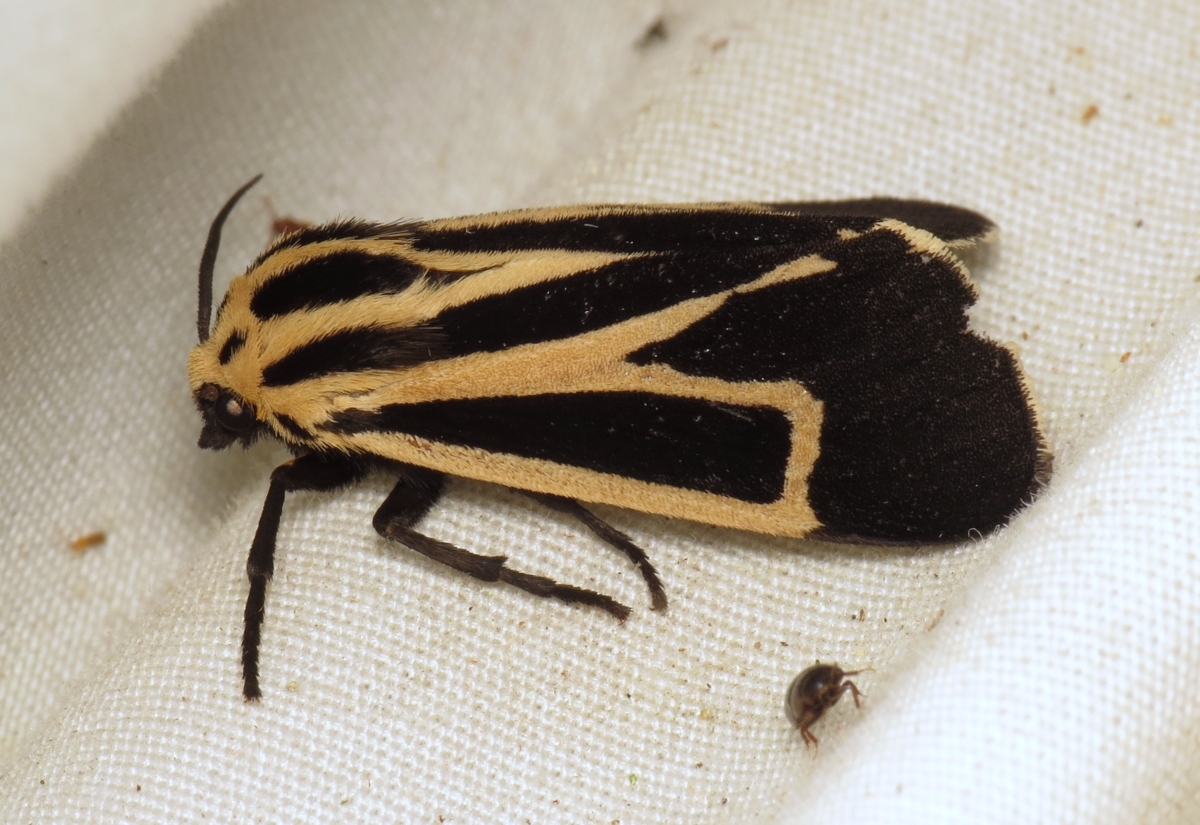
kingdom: Animalia
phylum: Arthropoda
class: Insecta
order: Lepidoptera
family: Erebidae
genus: Apantesis
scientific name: Apantesis nais
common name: Nais tiger moth
